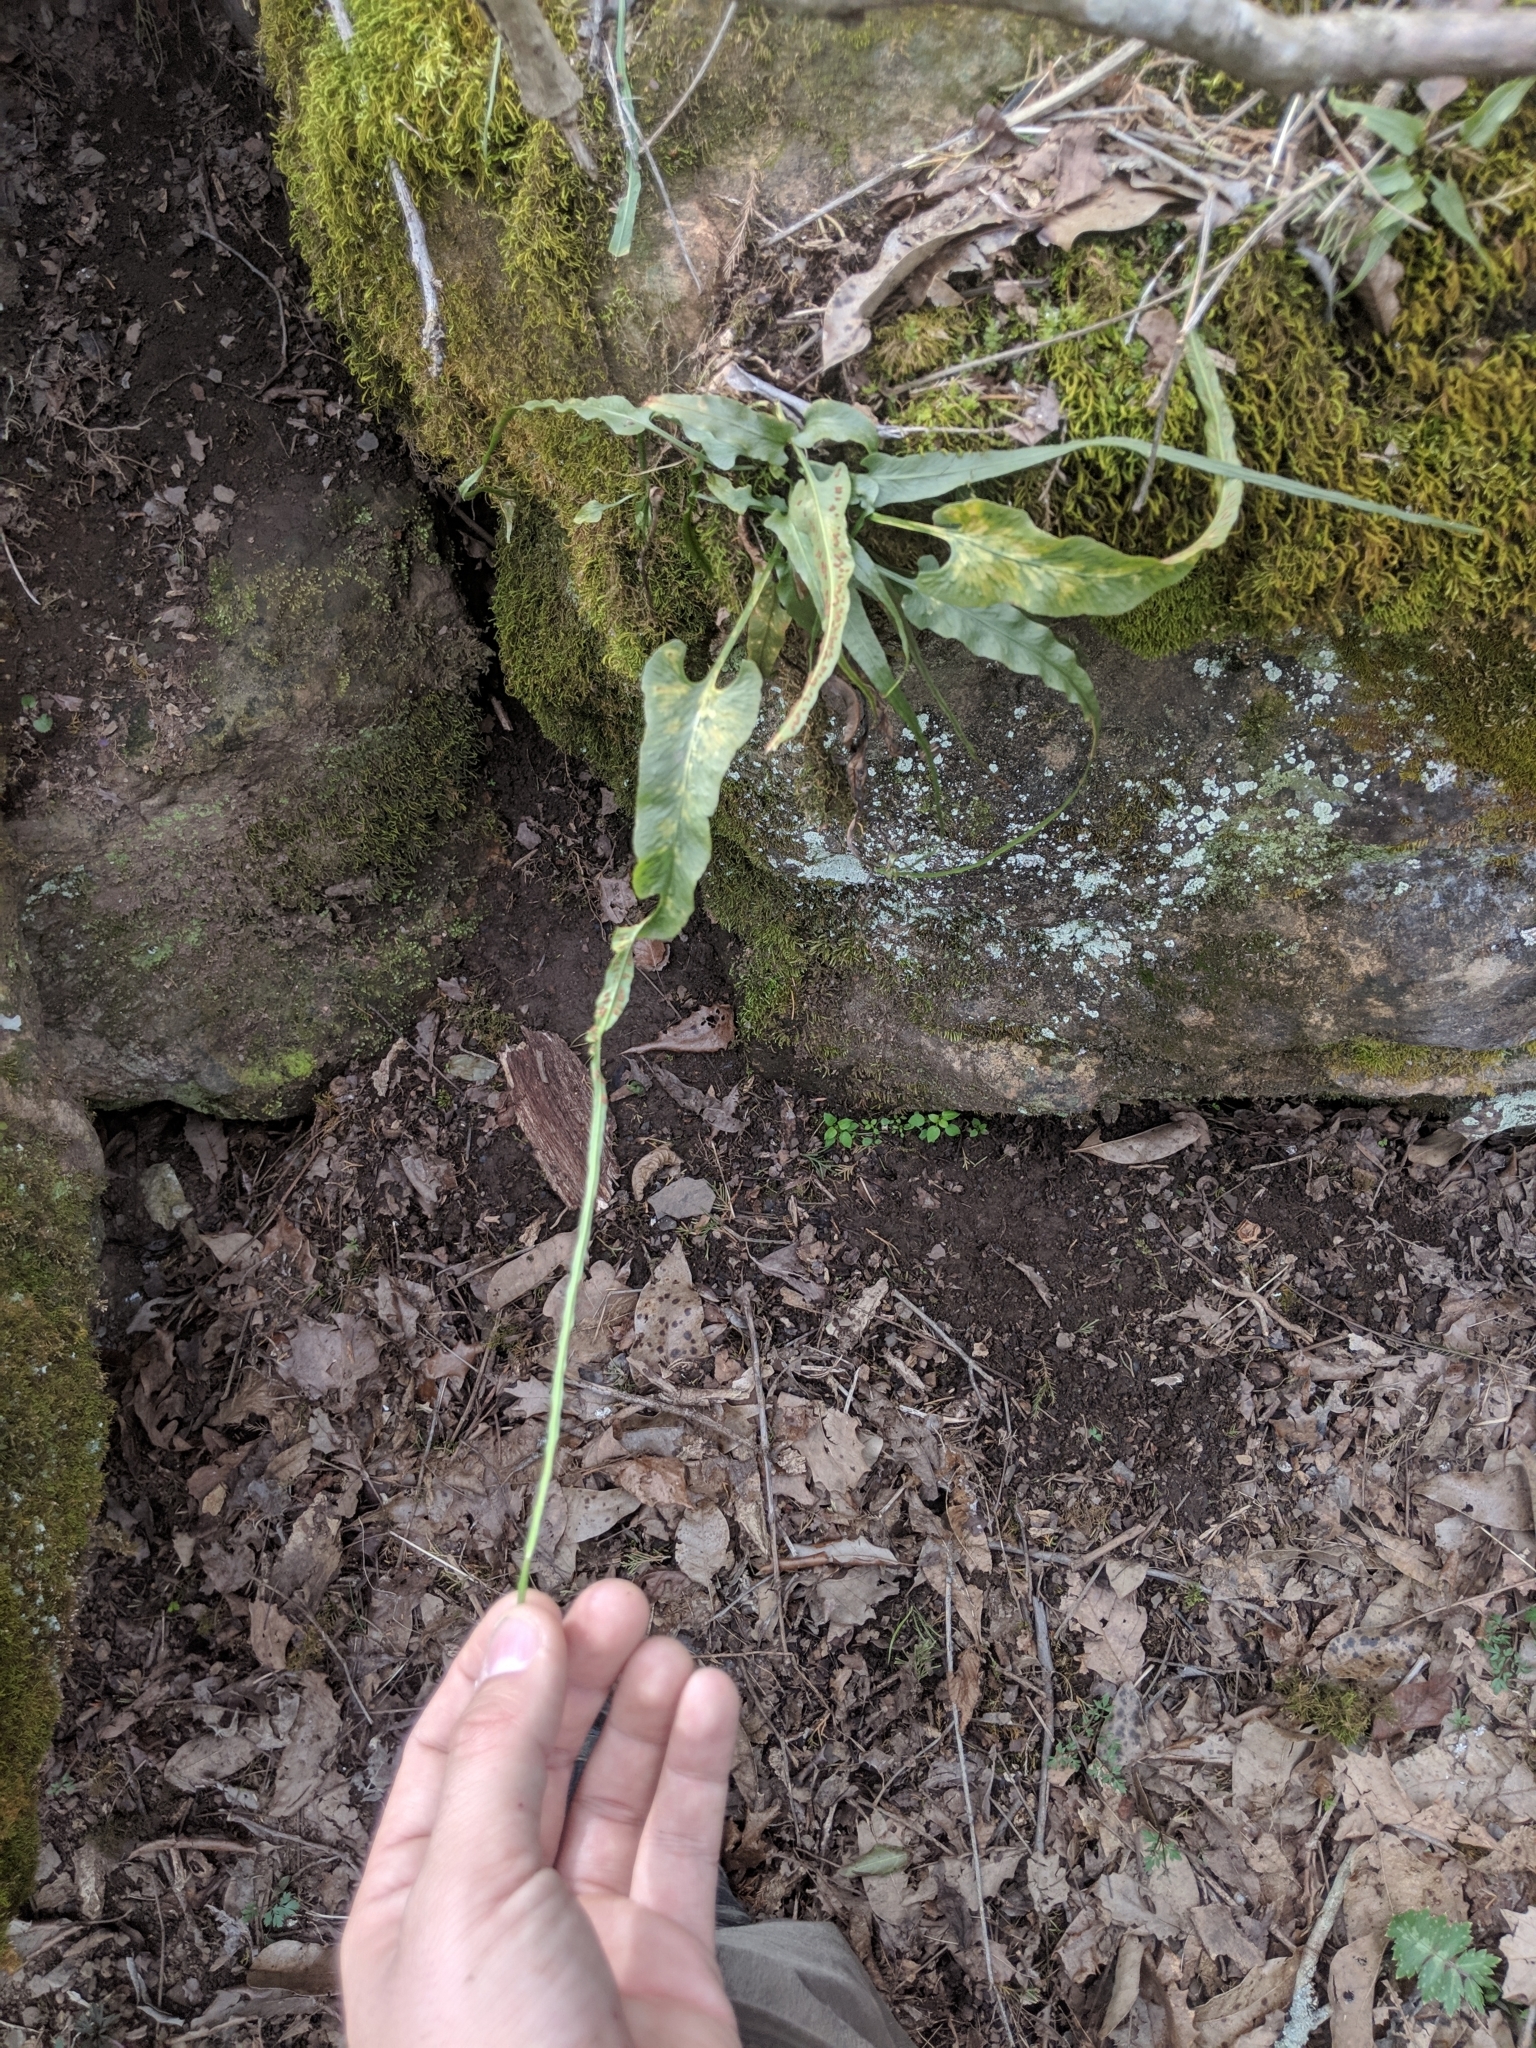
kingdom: Plantae
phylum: Tracheophyta
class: Polypodiopsida
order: Polypodiales
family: Aspleniaceae
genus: Asplenium
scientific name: Asplenium rhizophyllum
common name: Walking fern
